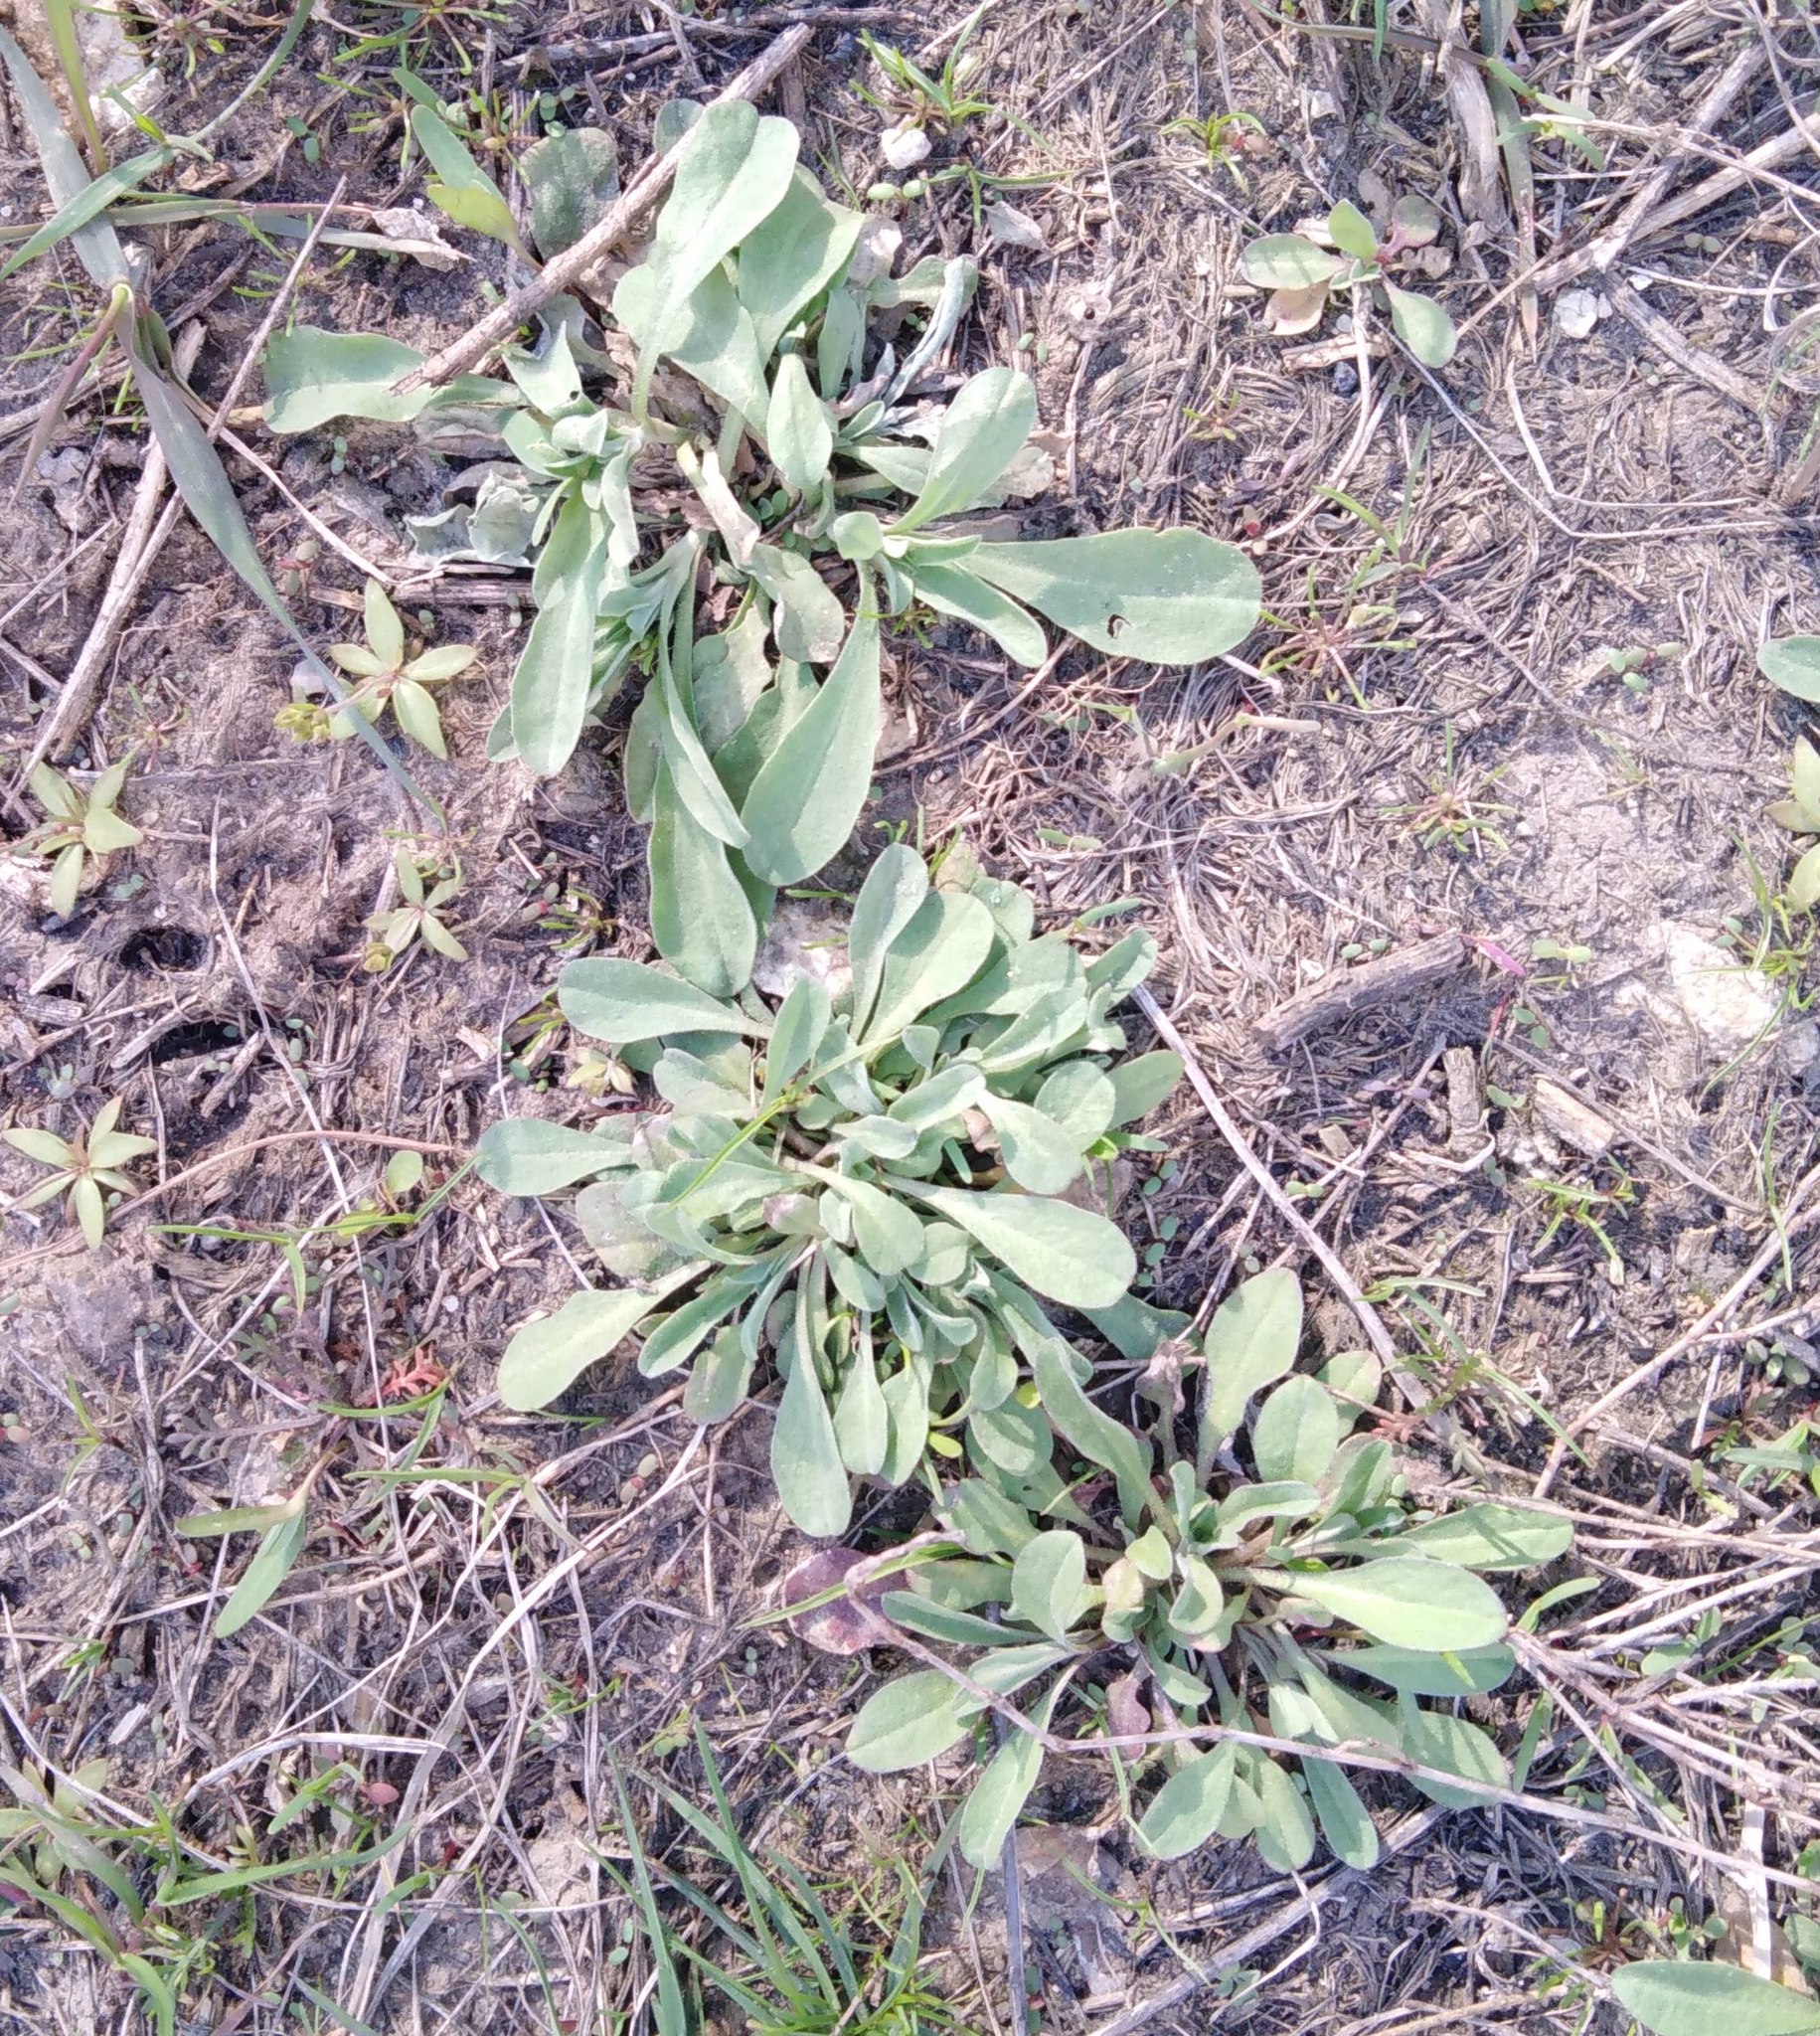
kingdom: Plantae
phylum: Tracheophyta
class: Magnoliopsida
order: Brassicales
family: Brassicaceae
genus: Berteroa
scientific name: Berteroa incana
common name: Hoary alison
